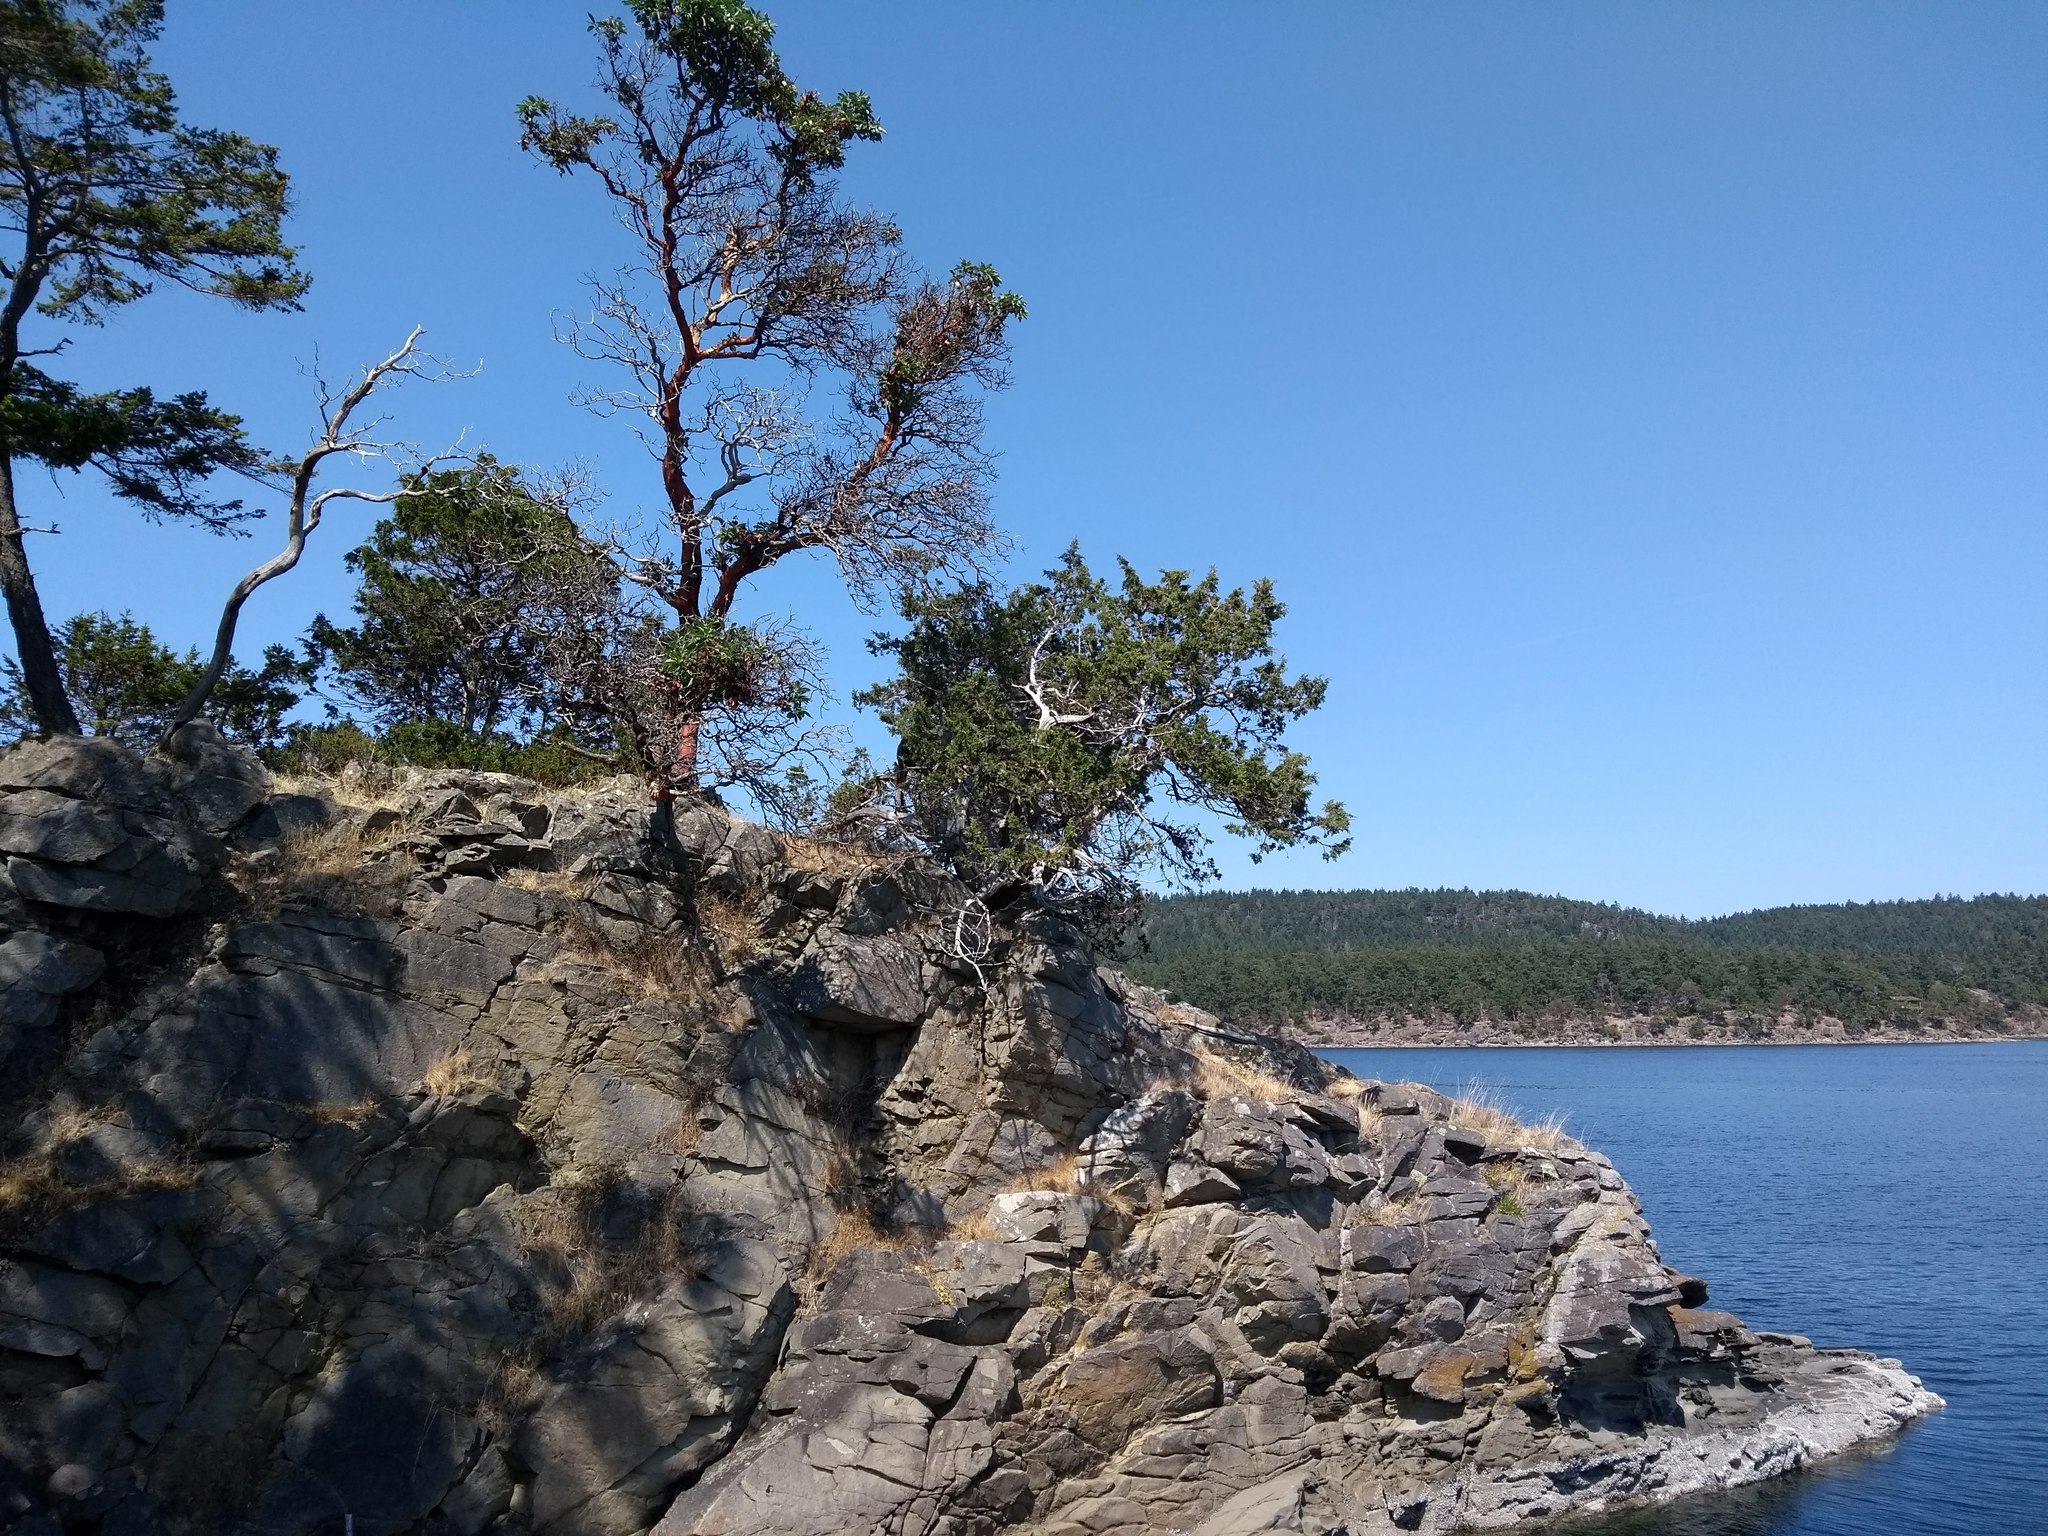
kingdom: Plantae
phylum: Tracheophyta
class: Magnoliopsida
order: Ericales
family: Ericaceae
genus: Arbutus
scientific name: Arbutus menziesii
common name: Pacific madrone
